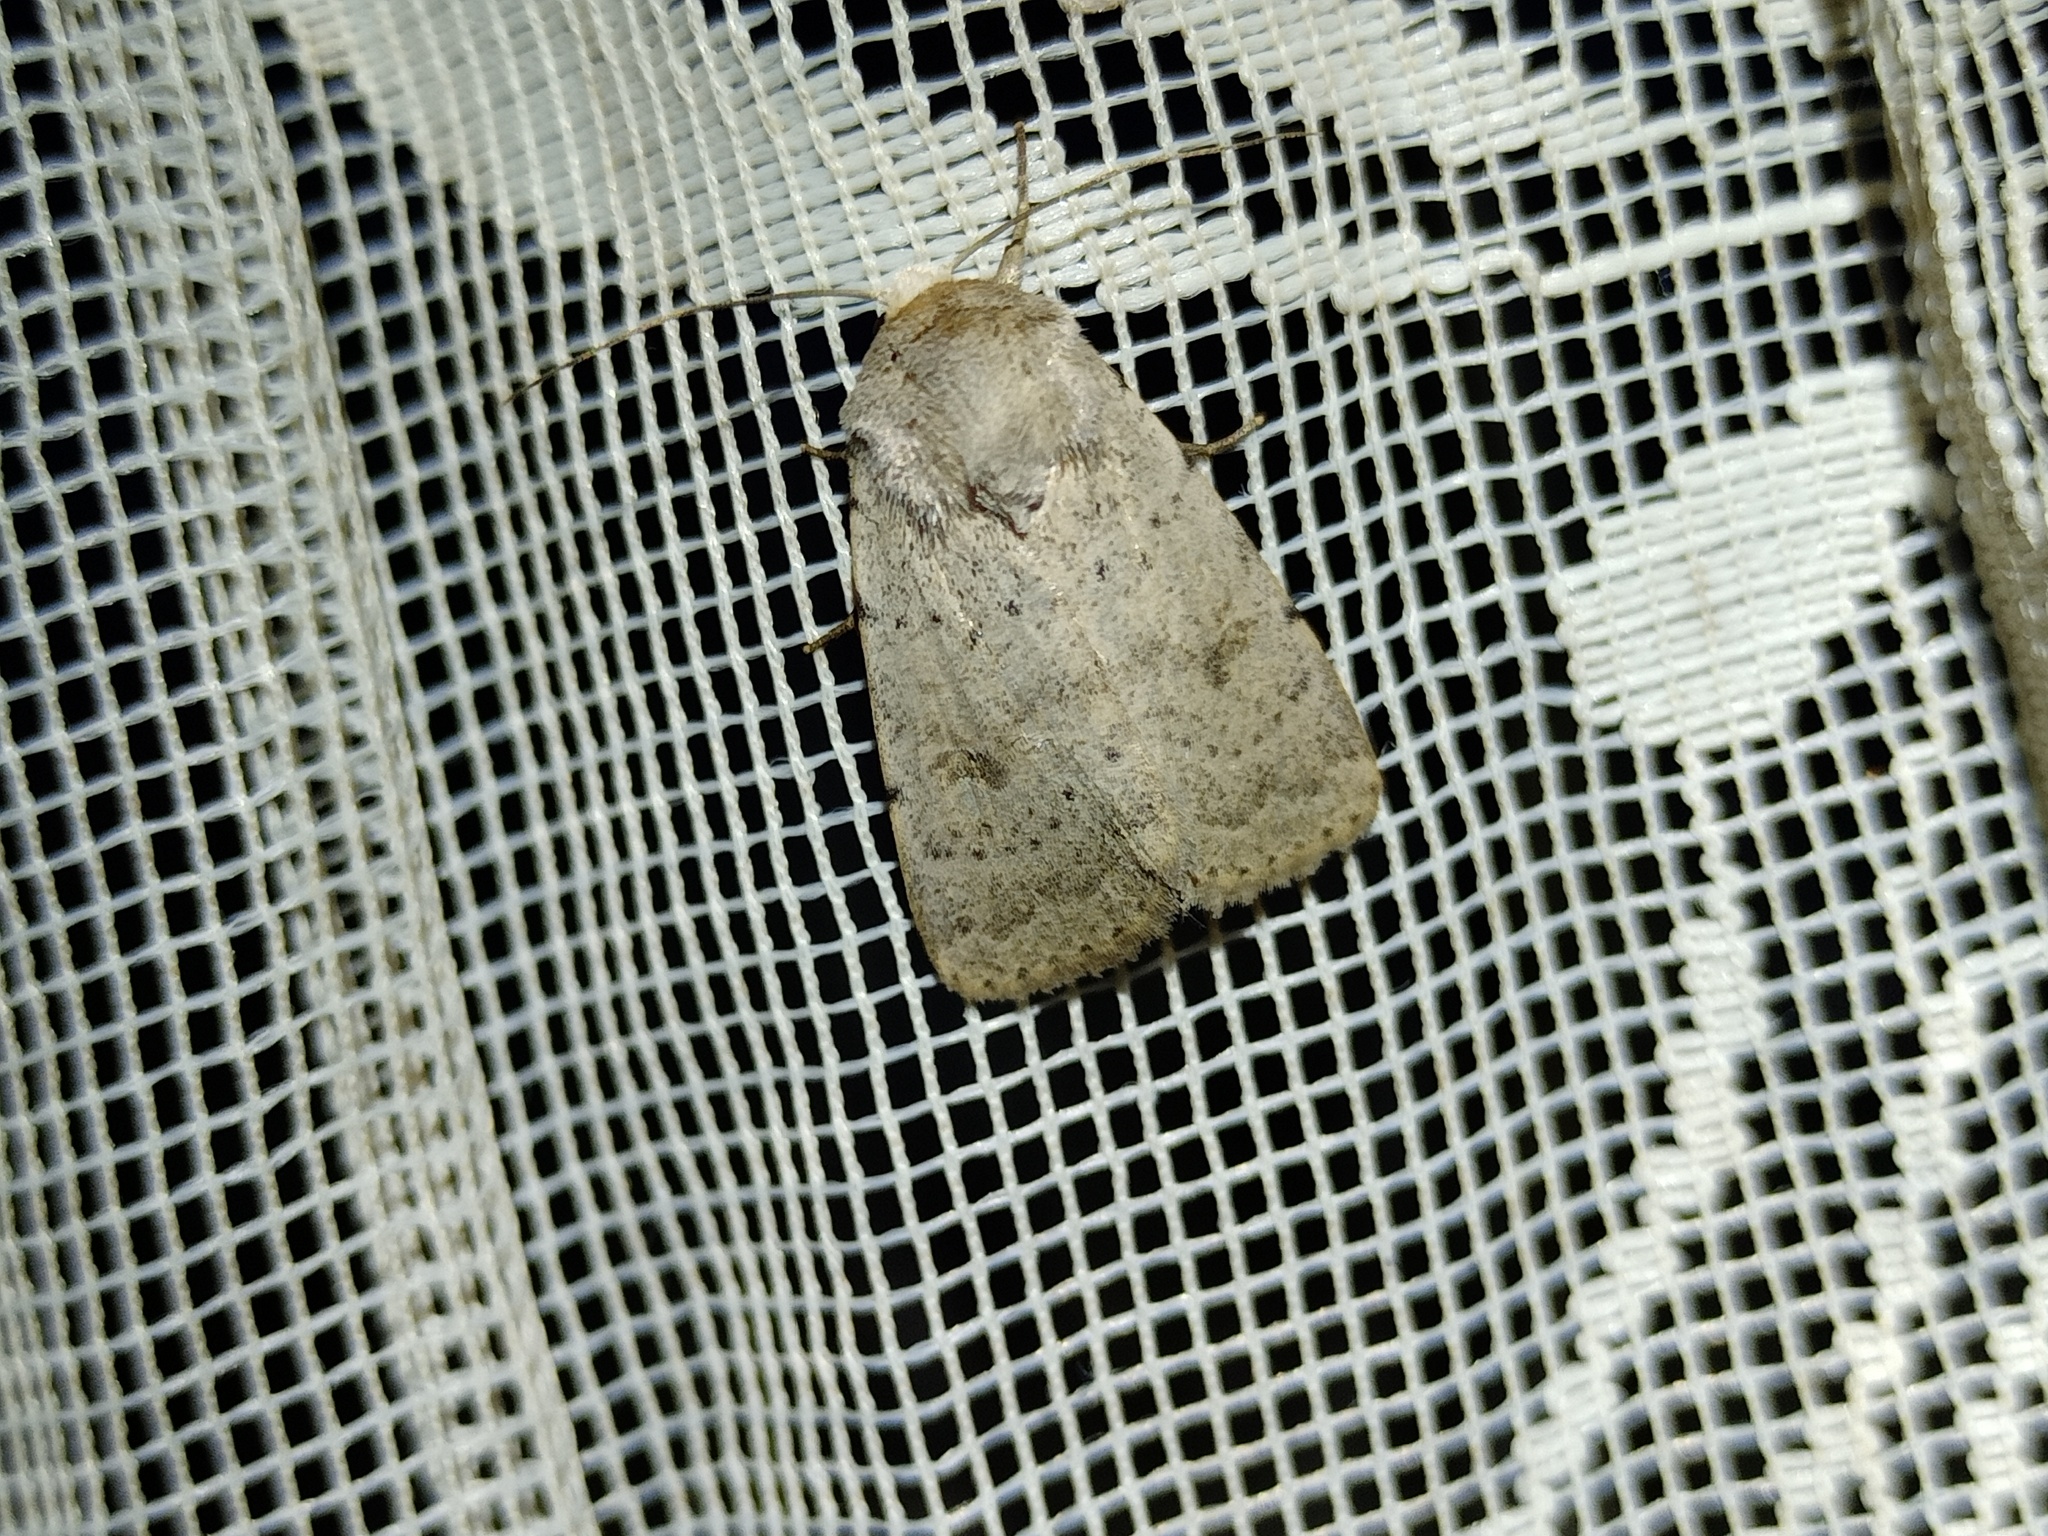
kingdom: Animalia
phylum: Arthropoda
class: Insecta
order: Lepidoptera
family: Noctuidae
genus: Hoplodrina
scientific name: Hoplodrina respersa
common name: Sprinkled rustic
